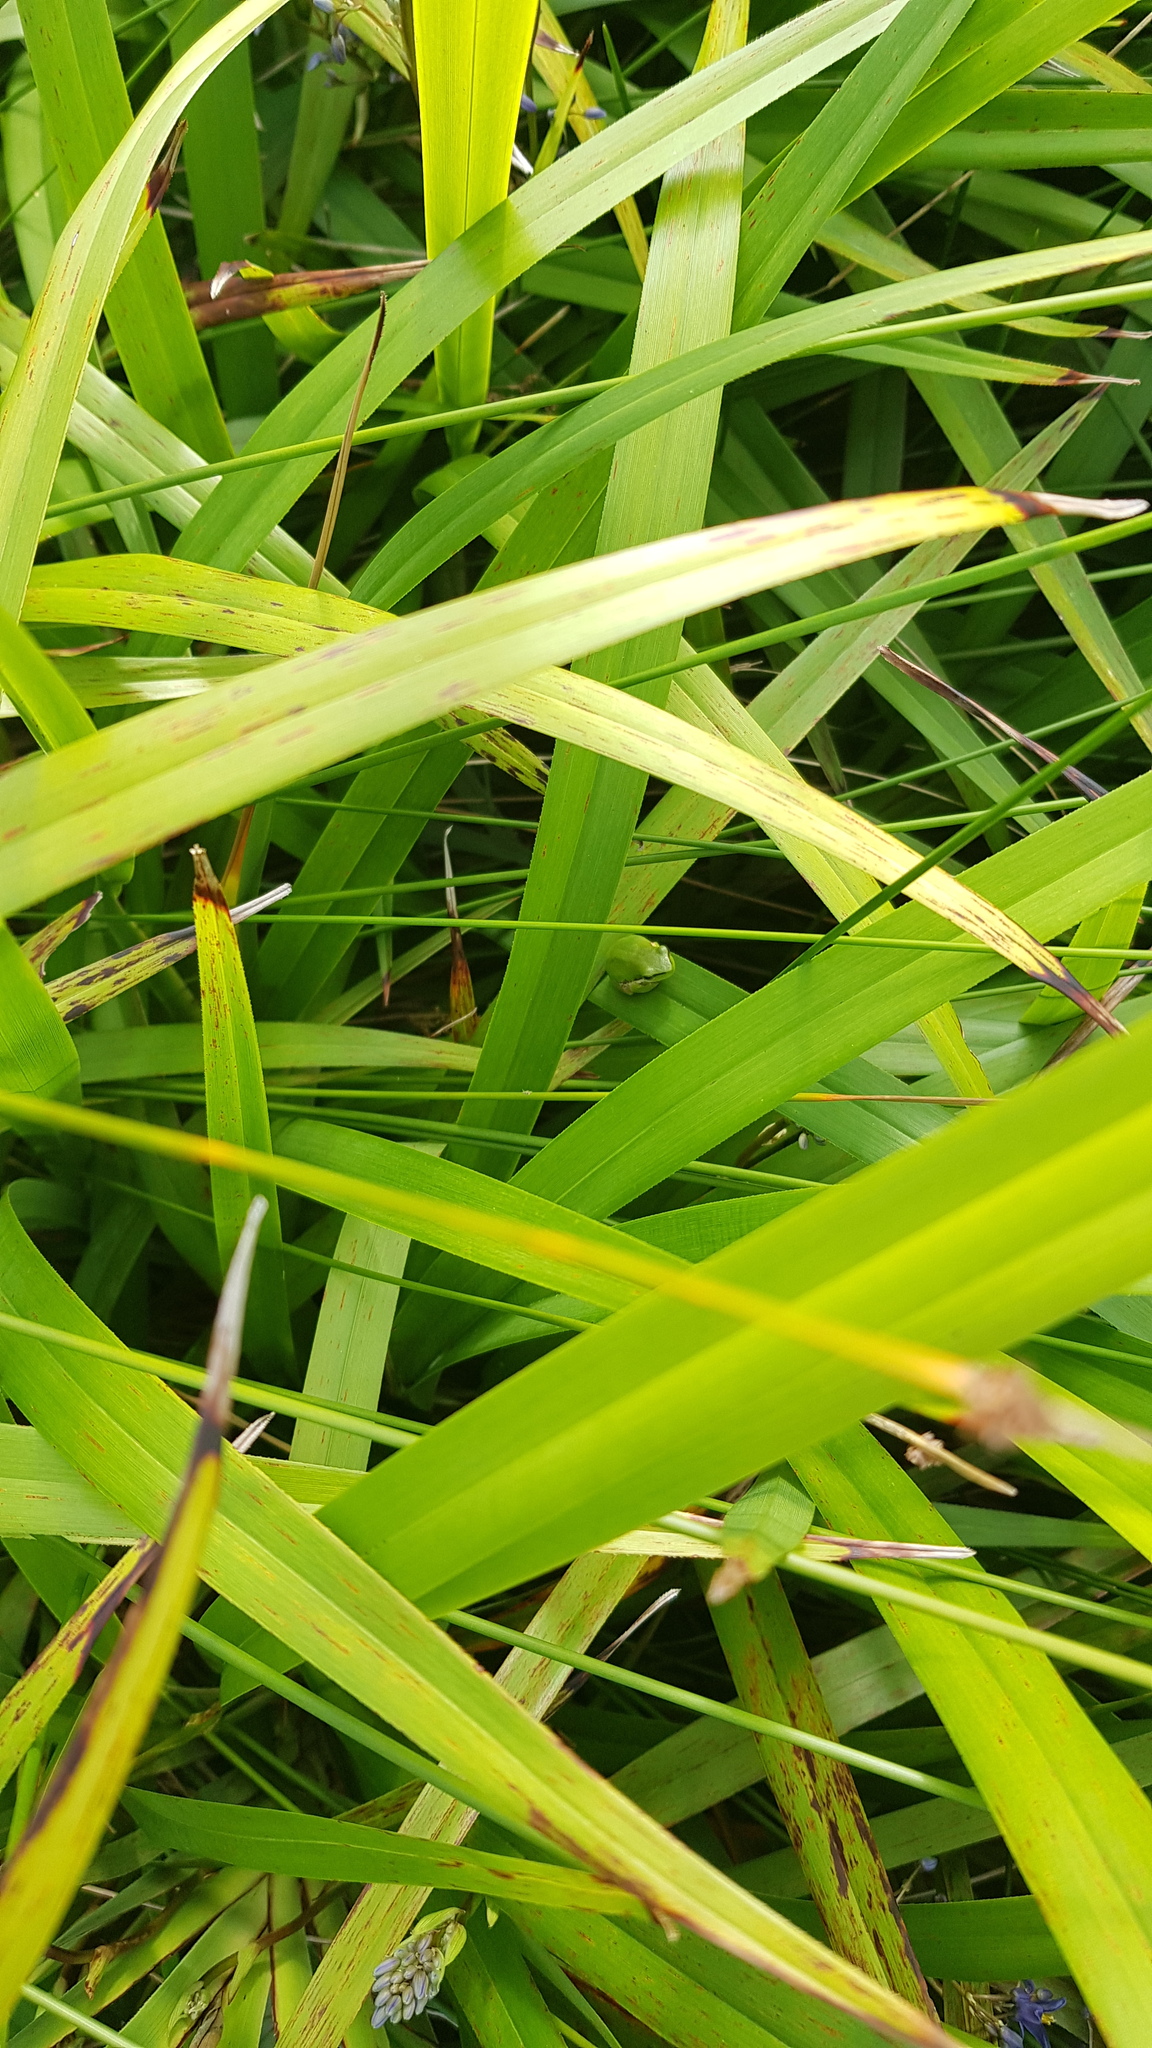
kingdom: Animalia
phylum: Chordata
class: Amphibia
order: Anura
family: Pelodryadidae
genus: Litoria
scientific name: Litoria fallax
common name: Eastern dwarf treefrog
